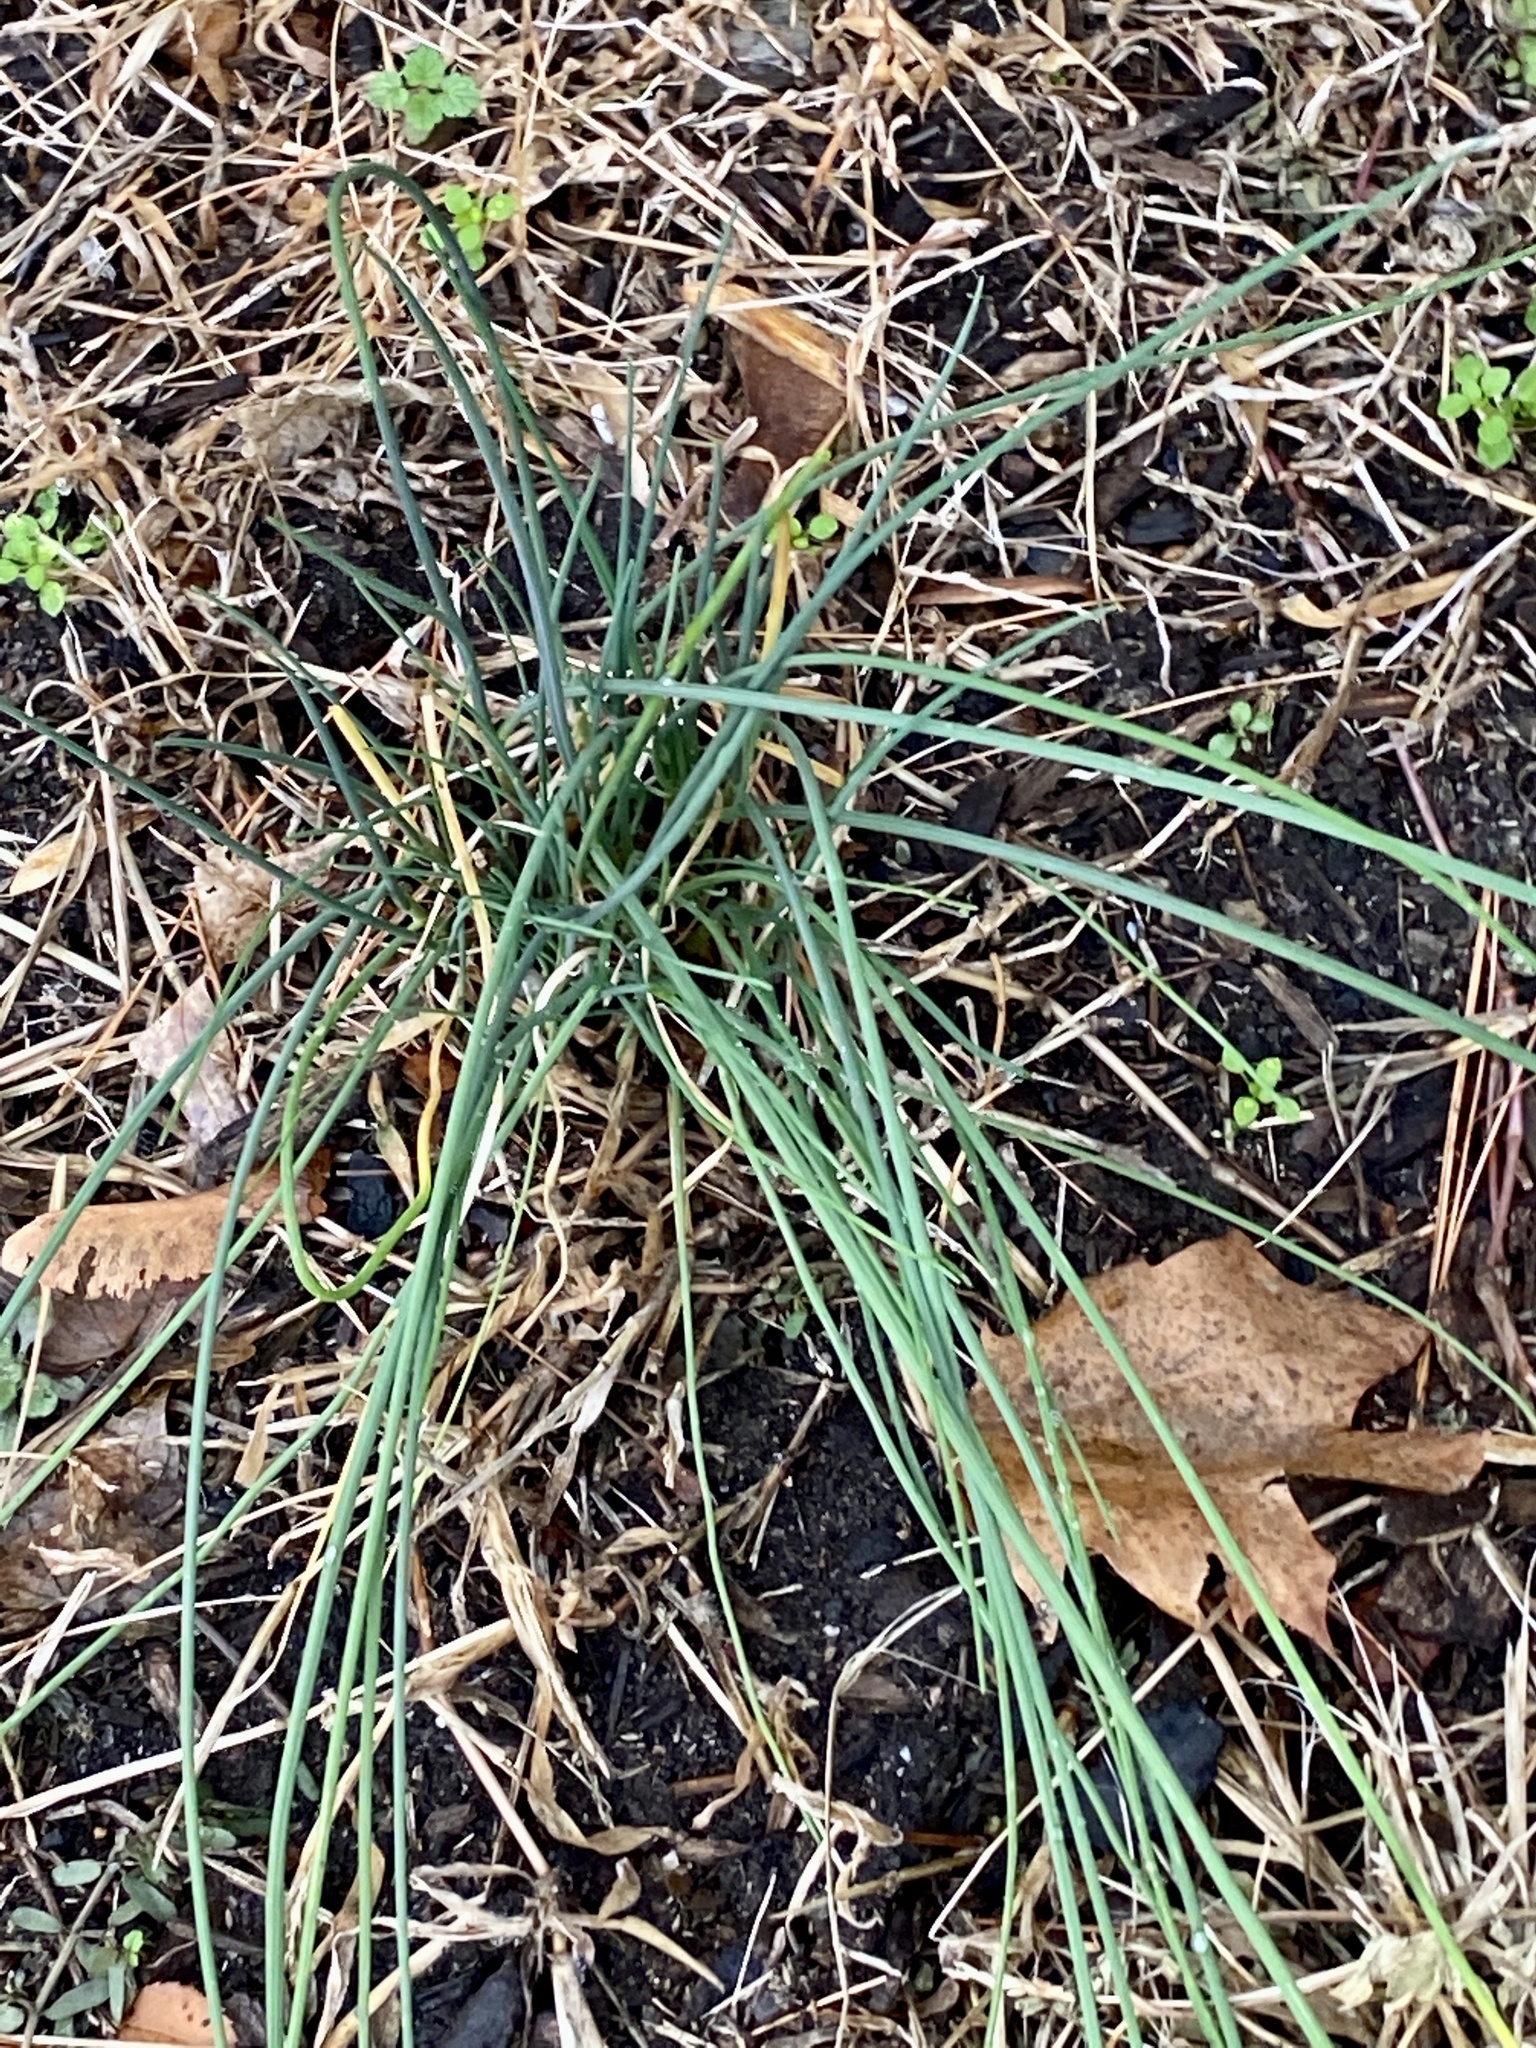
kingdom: Plantae
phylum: Tracheophyta
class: Liliopsida
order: Asparagales
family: Amaryllidaceae
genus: Allium
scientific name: Allium vineale
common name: Crow garlic
